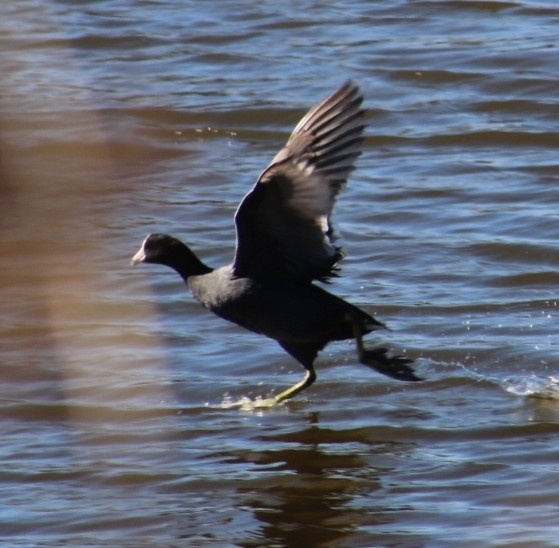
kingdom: Animalia
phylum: Chordata
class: Aves
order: Gruiformes
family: Rallidae
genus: Fulica
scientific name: Fulica americana
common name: American coot
